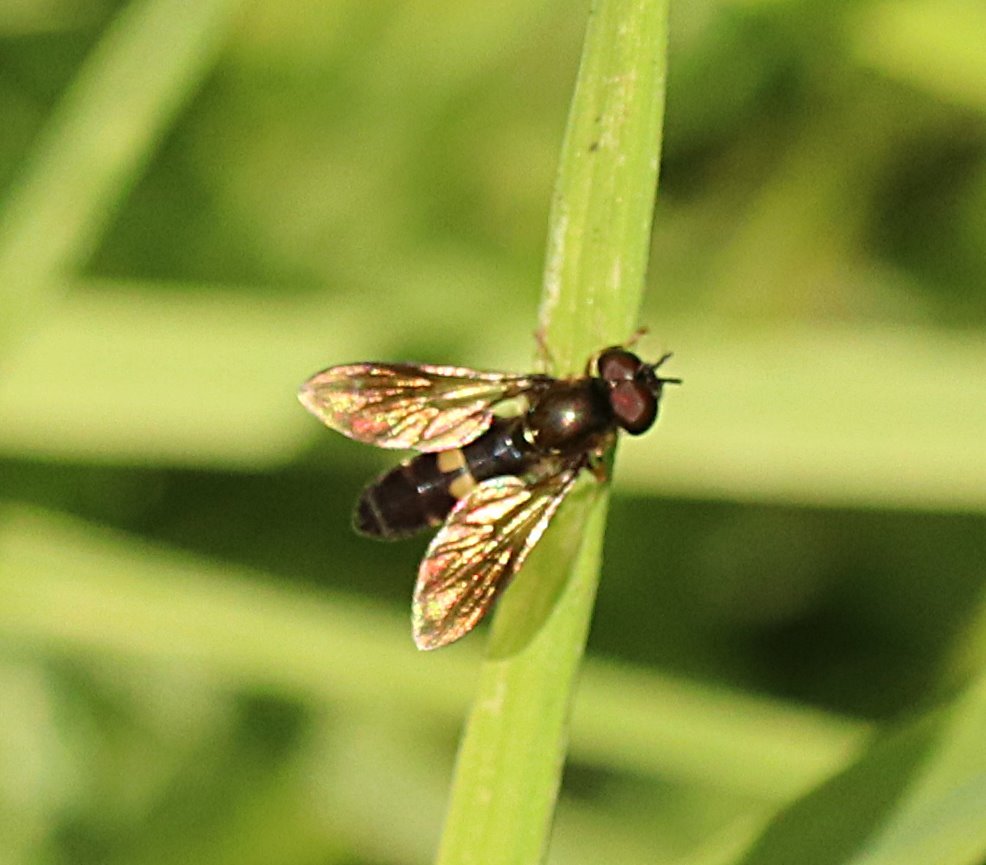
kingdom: Animalia
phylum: Arthropoda
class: Insecta
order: Diptera
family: Syrphidae
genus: Pyrophaena
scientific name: Pyrophaena rosarum
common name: Fourspot sedgesitter
